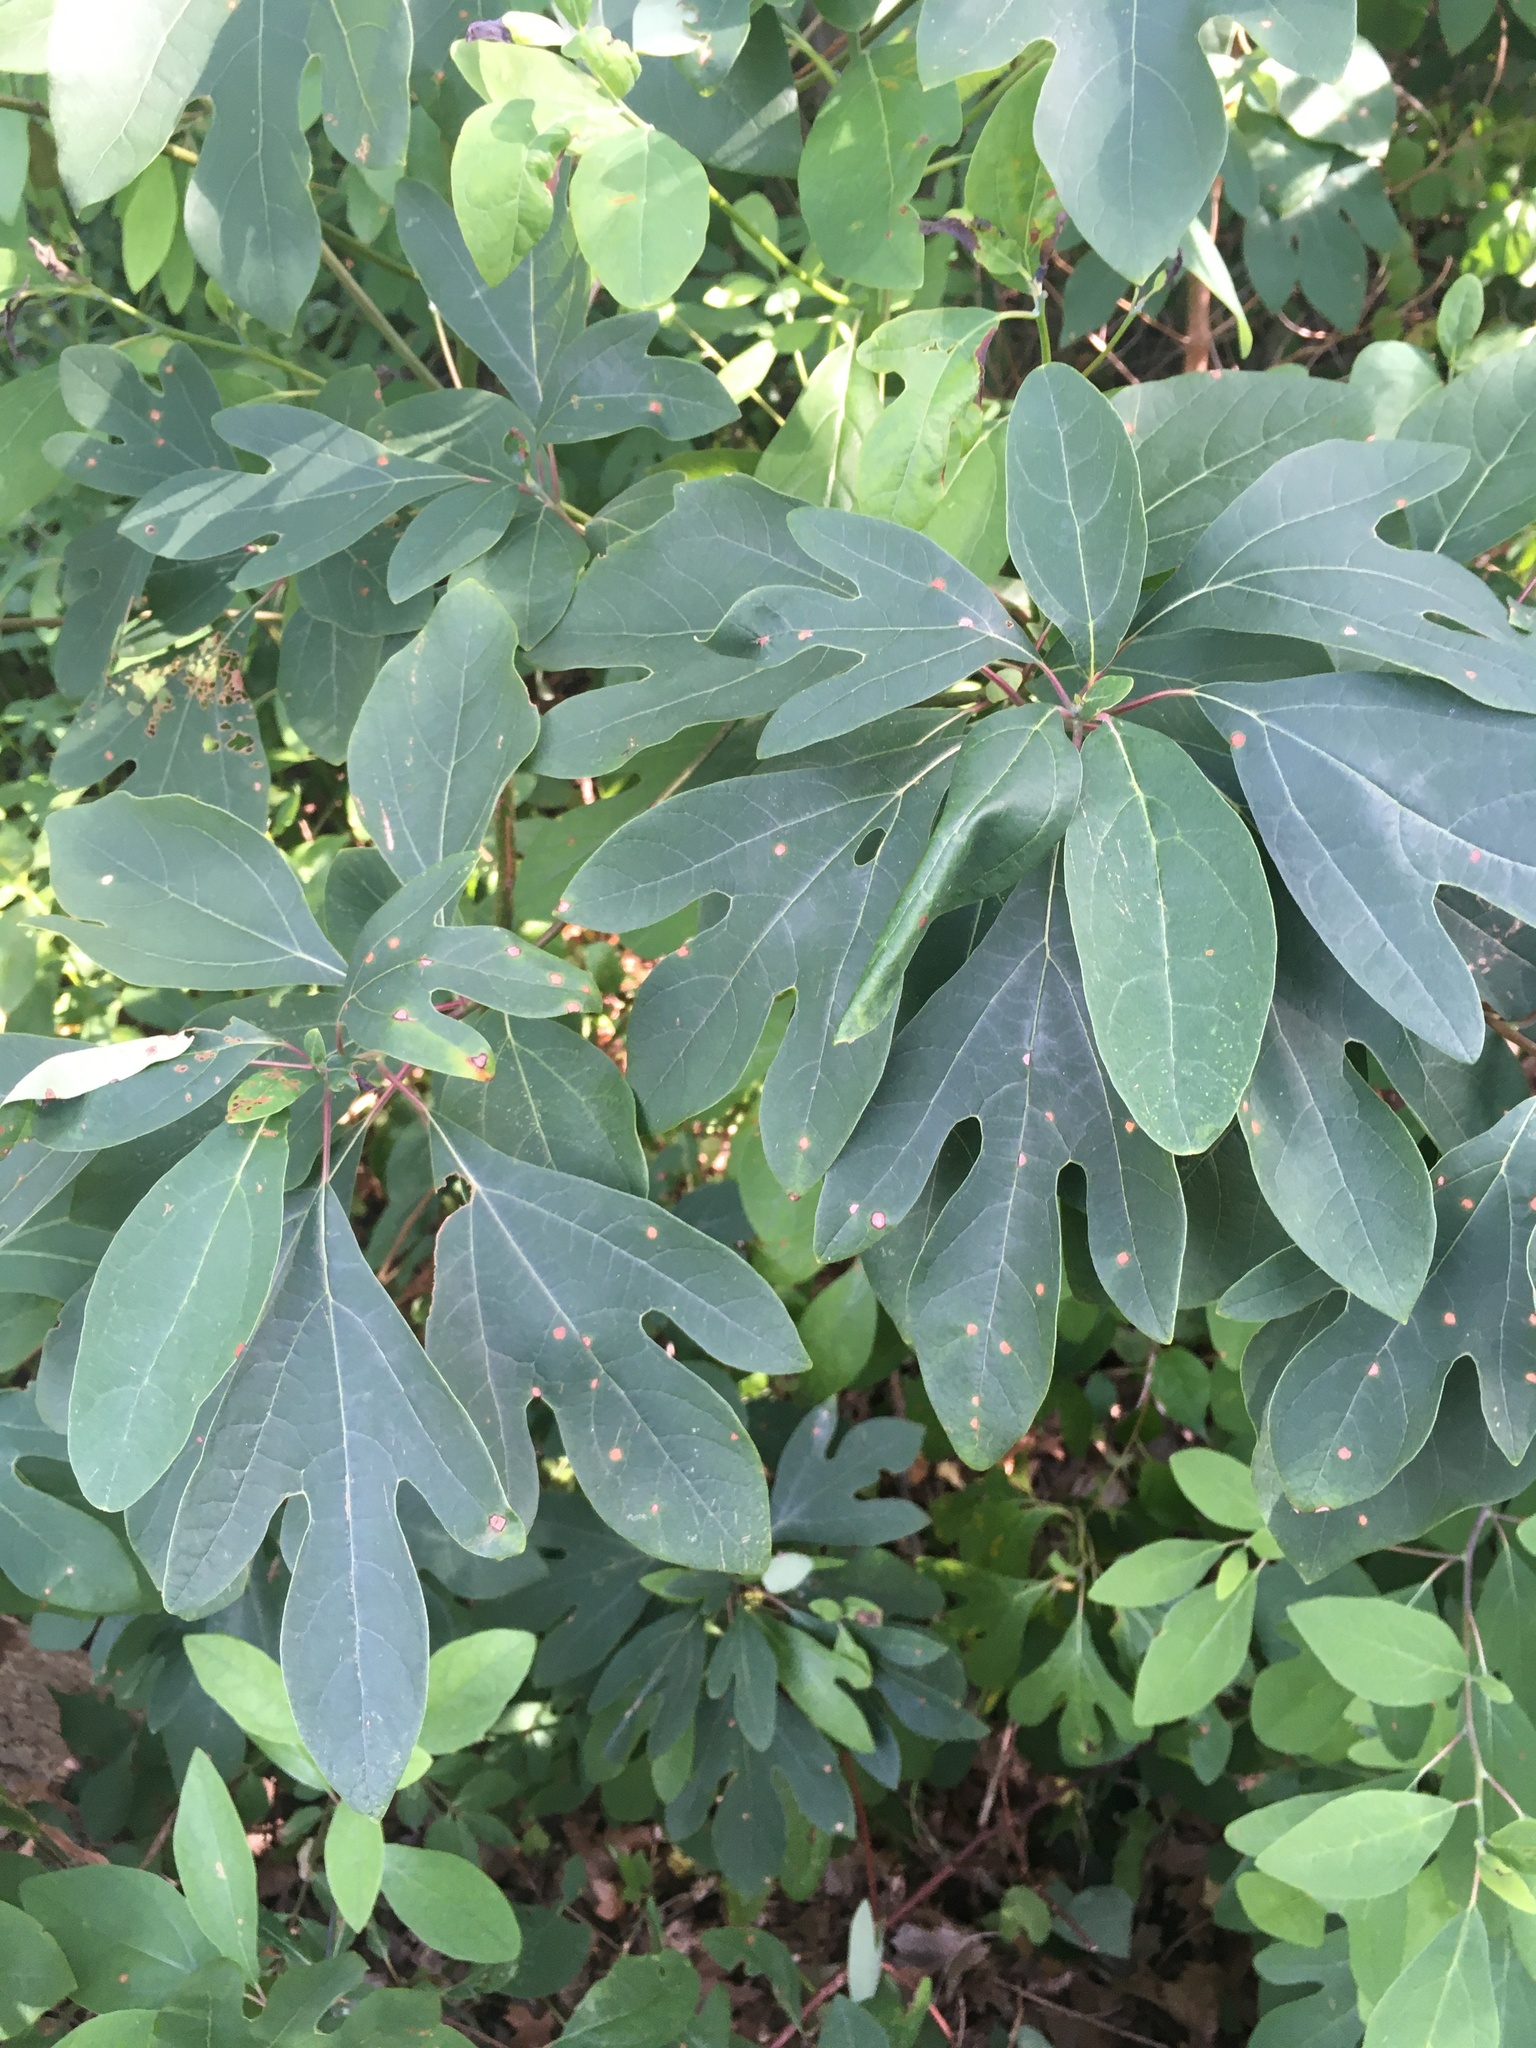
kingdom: Plantae
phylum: Tracheophyta
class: Magnoliopsida
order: Laurales
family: Lauraceae
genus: Sassafras
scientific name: Sassafras albidum
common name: Sassafras
